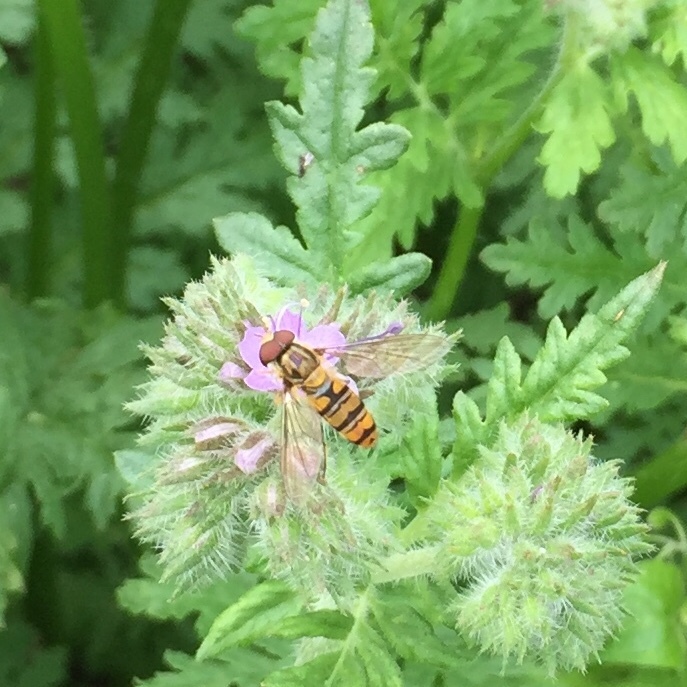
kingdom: Animalia
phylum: Arthropoda
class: Insecta
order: Diptera
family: Syrphidae
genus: Episyrphus
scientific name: Episyrphus balteatus
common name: Marmalade hoverfly
